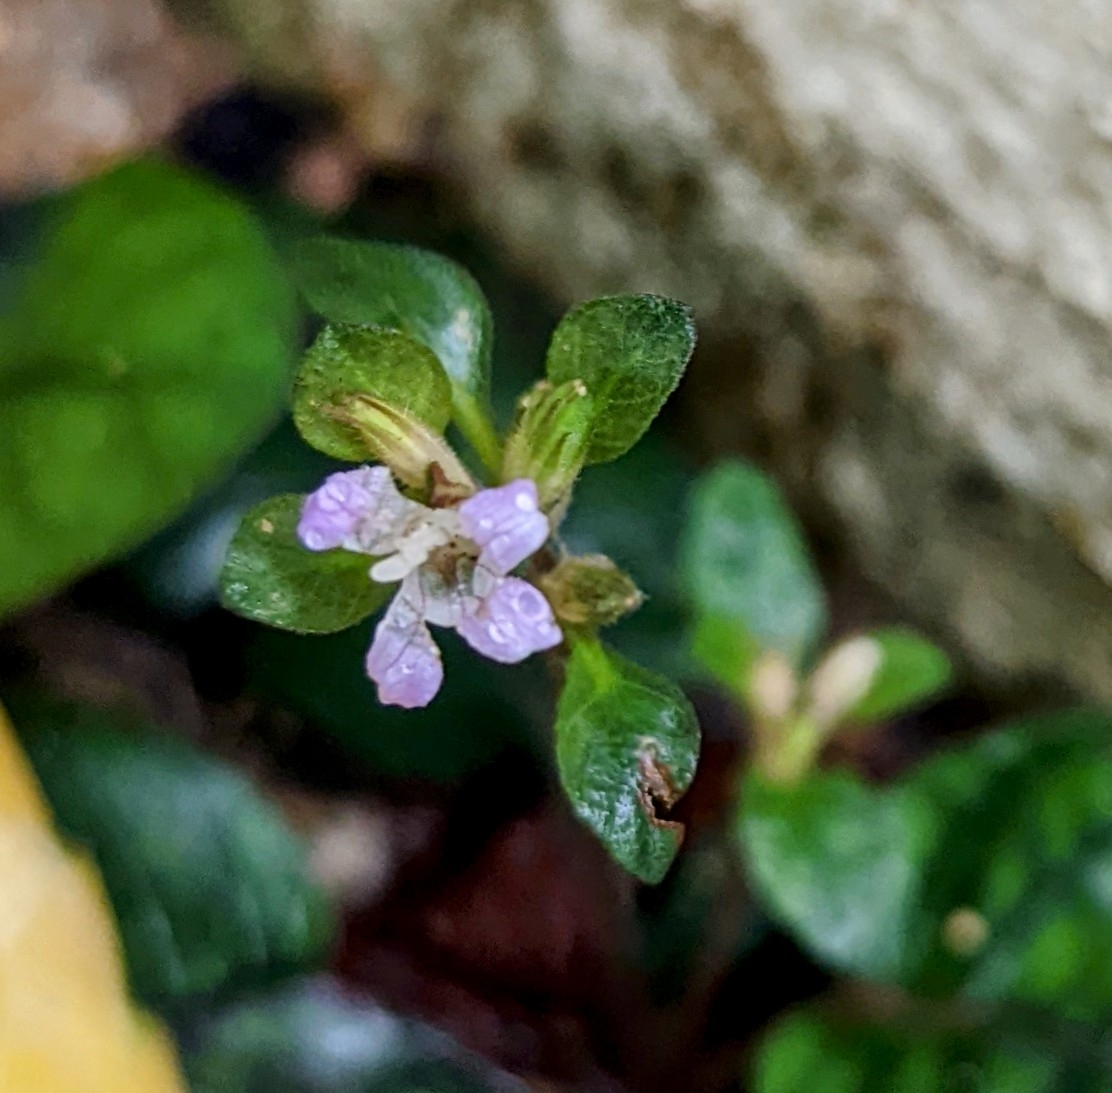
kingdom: Plantae
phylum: Tracheophyta
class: Magnoliopsida
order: Lamiales
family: Acanthaceae
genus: Strobilanthes
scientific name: Strobilanthes reptans
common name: Acanthaceae
